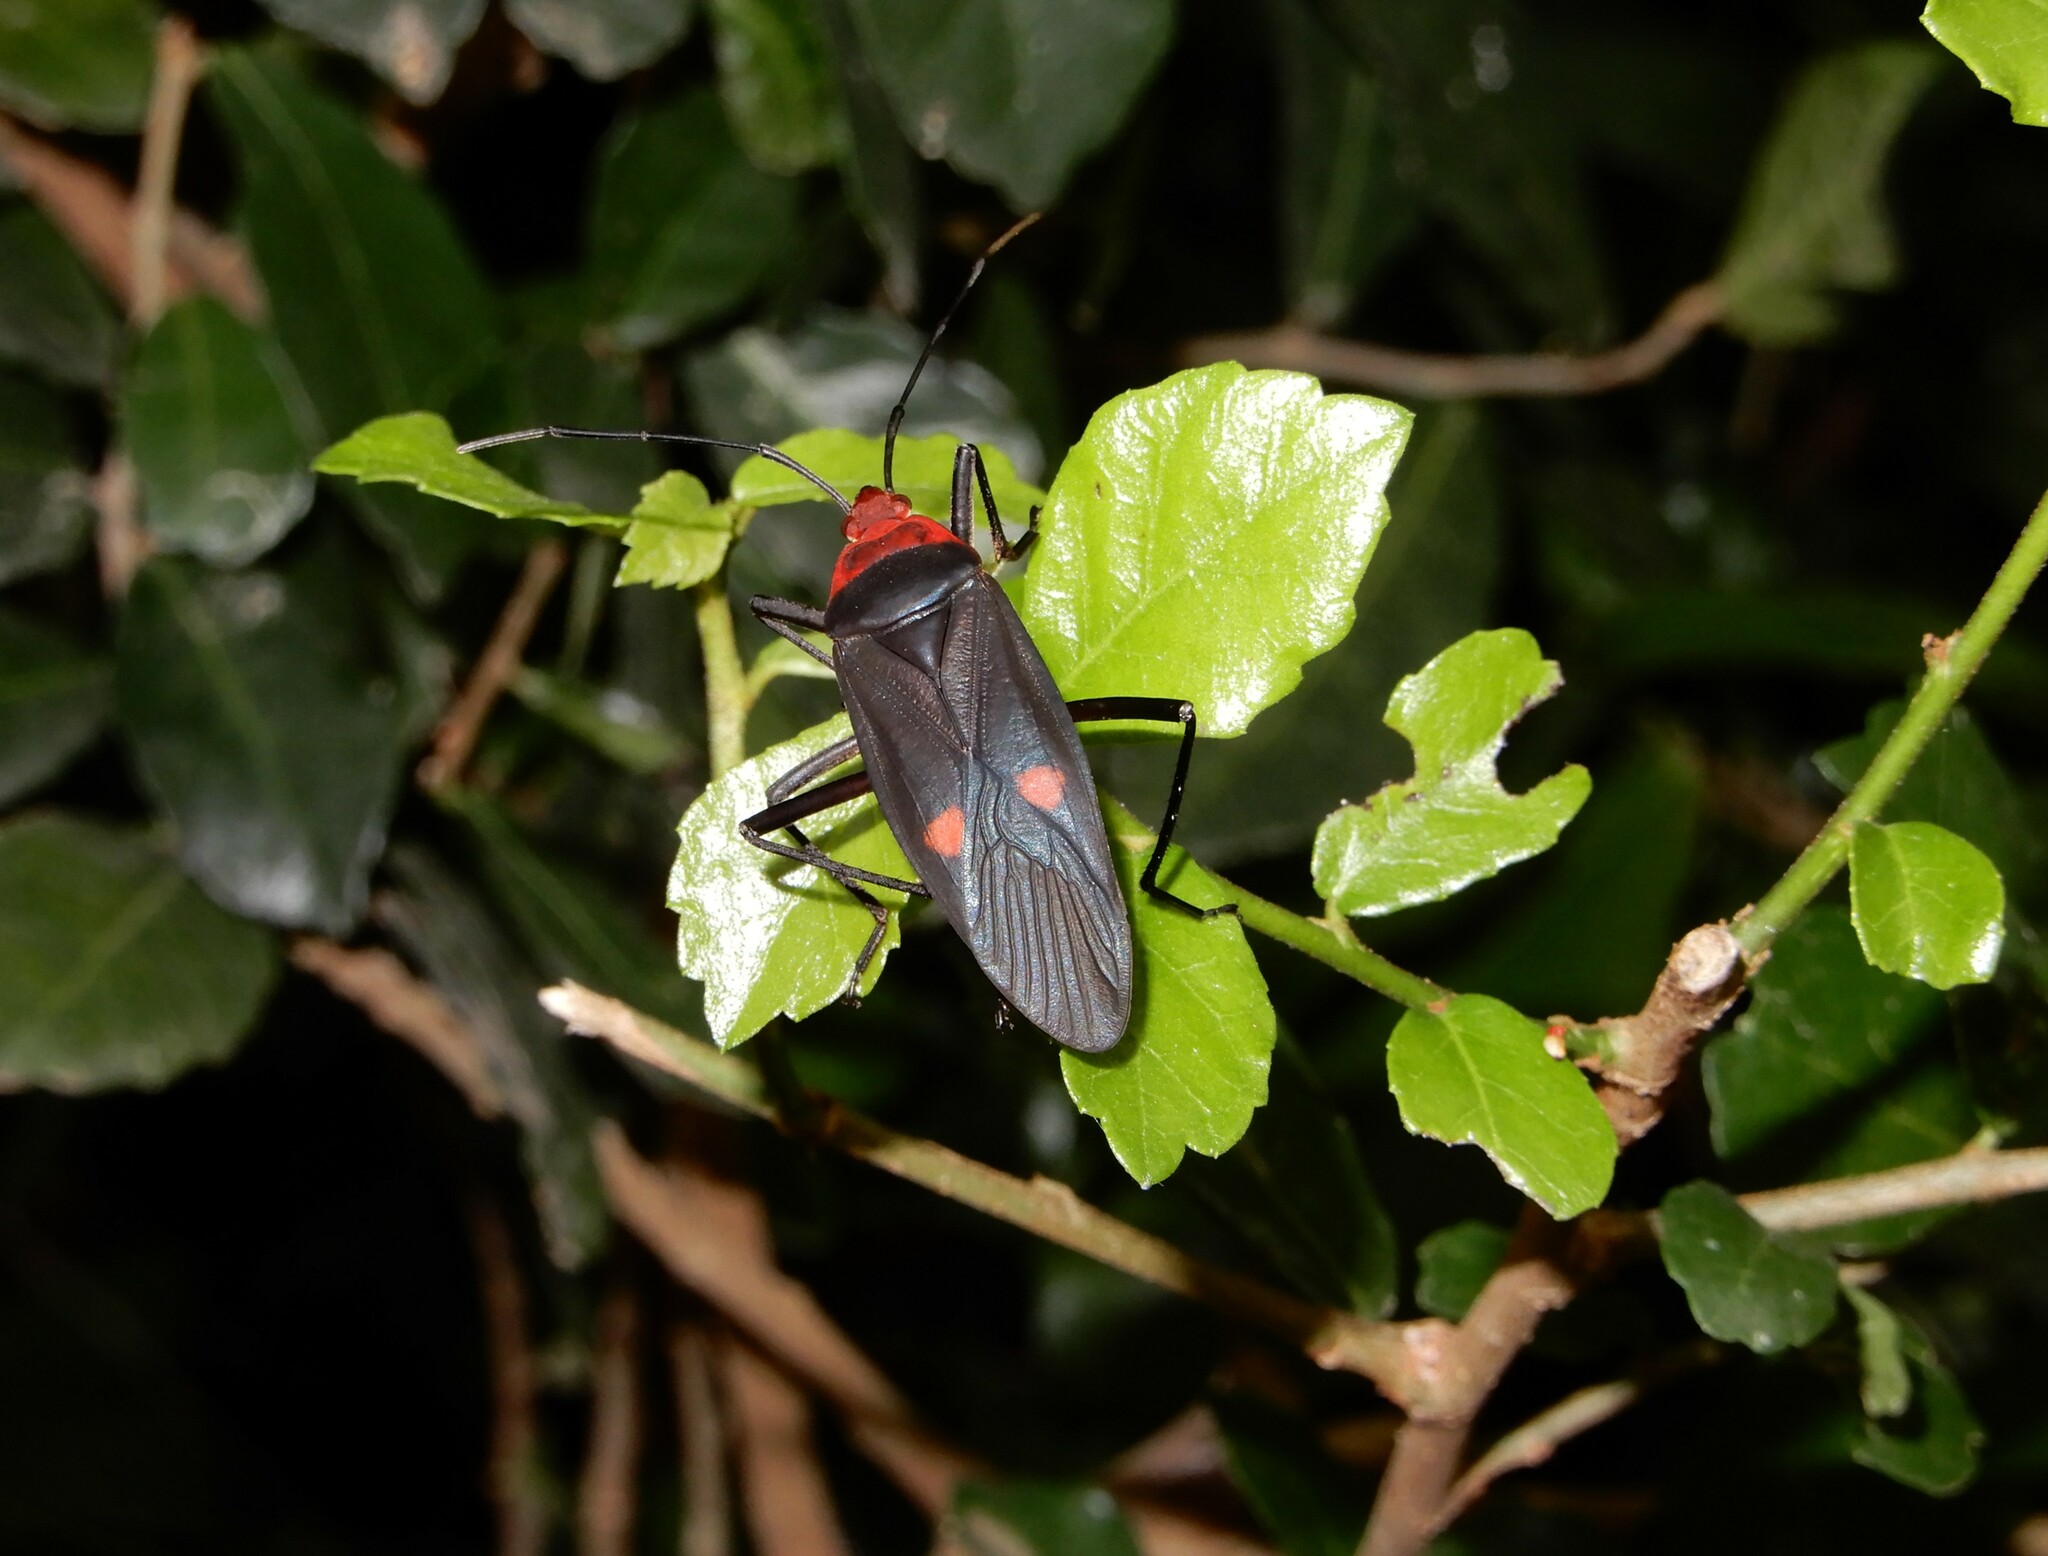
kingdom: Animalia
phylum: Arthropoda
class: Insecta
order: Hemiptera
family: Pyrrhocoridae
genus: Melamphaus
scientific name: Melamphaus faber
